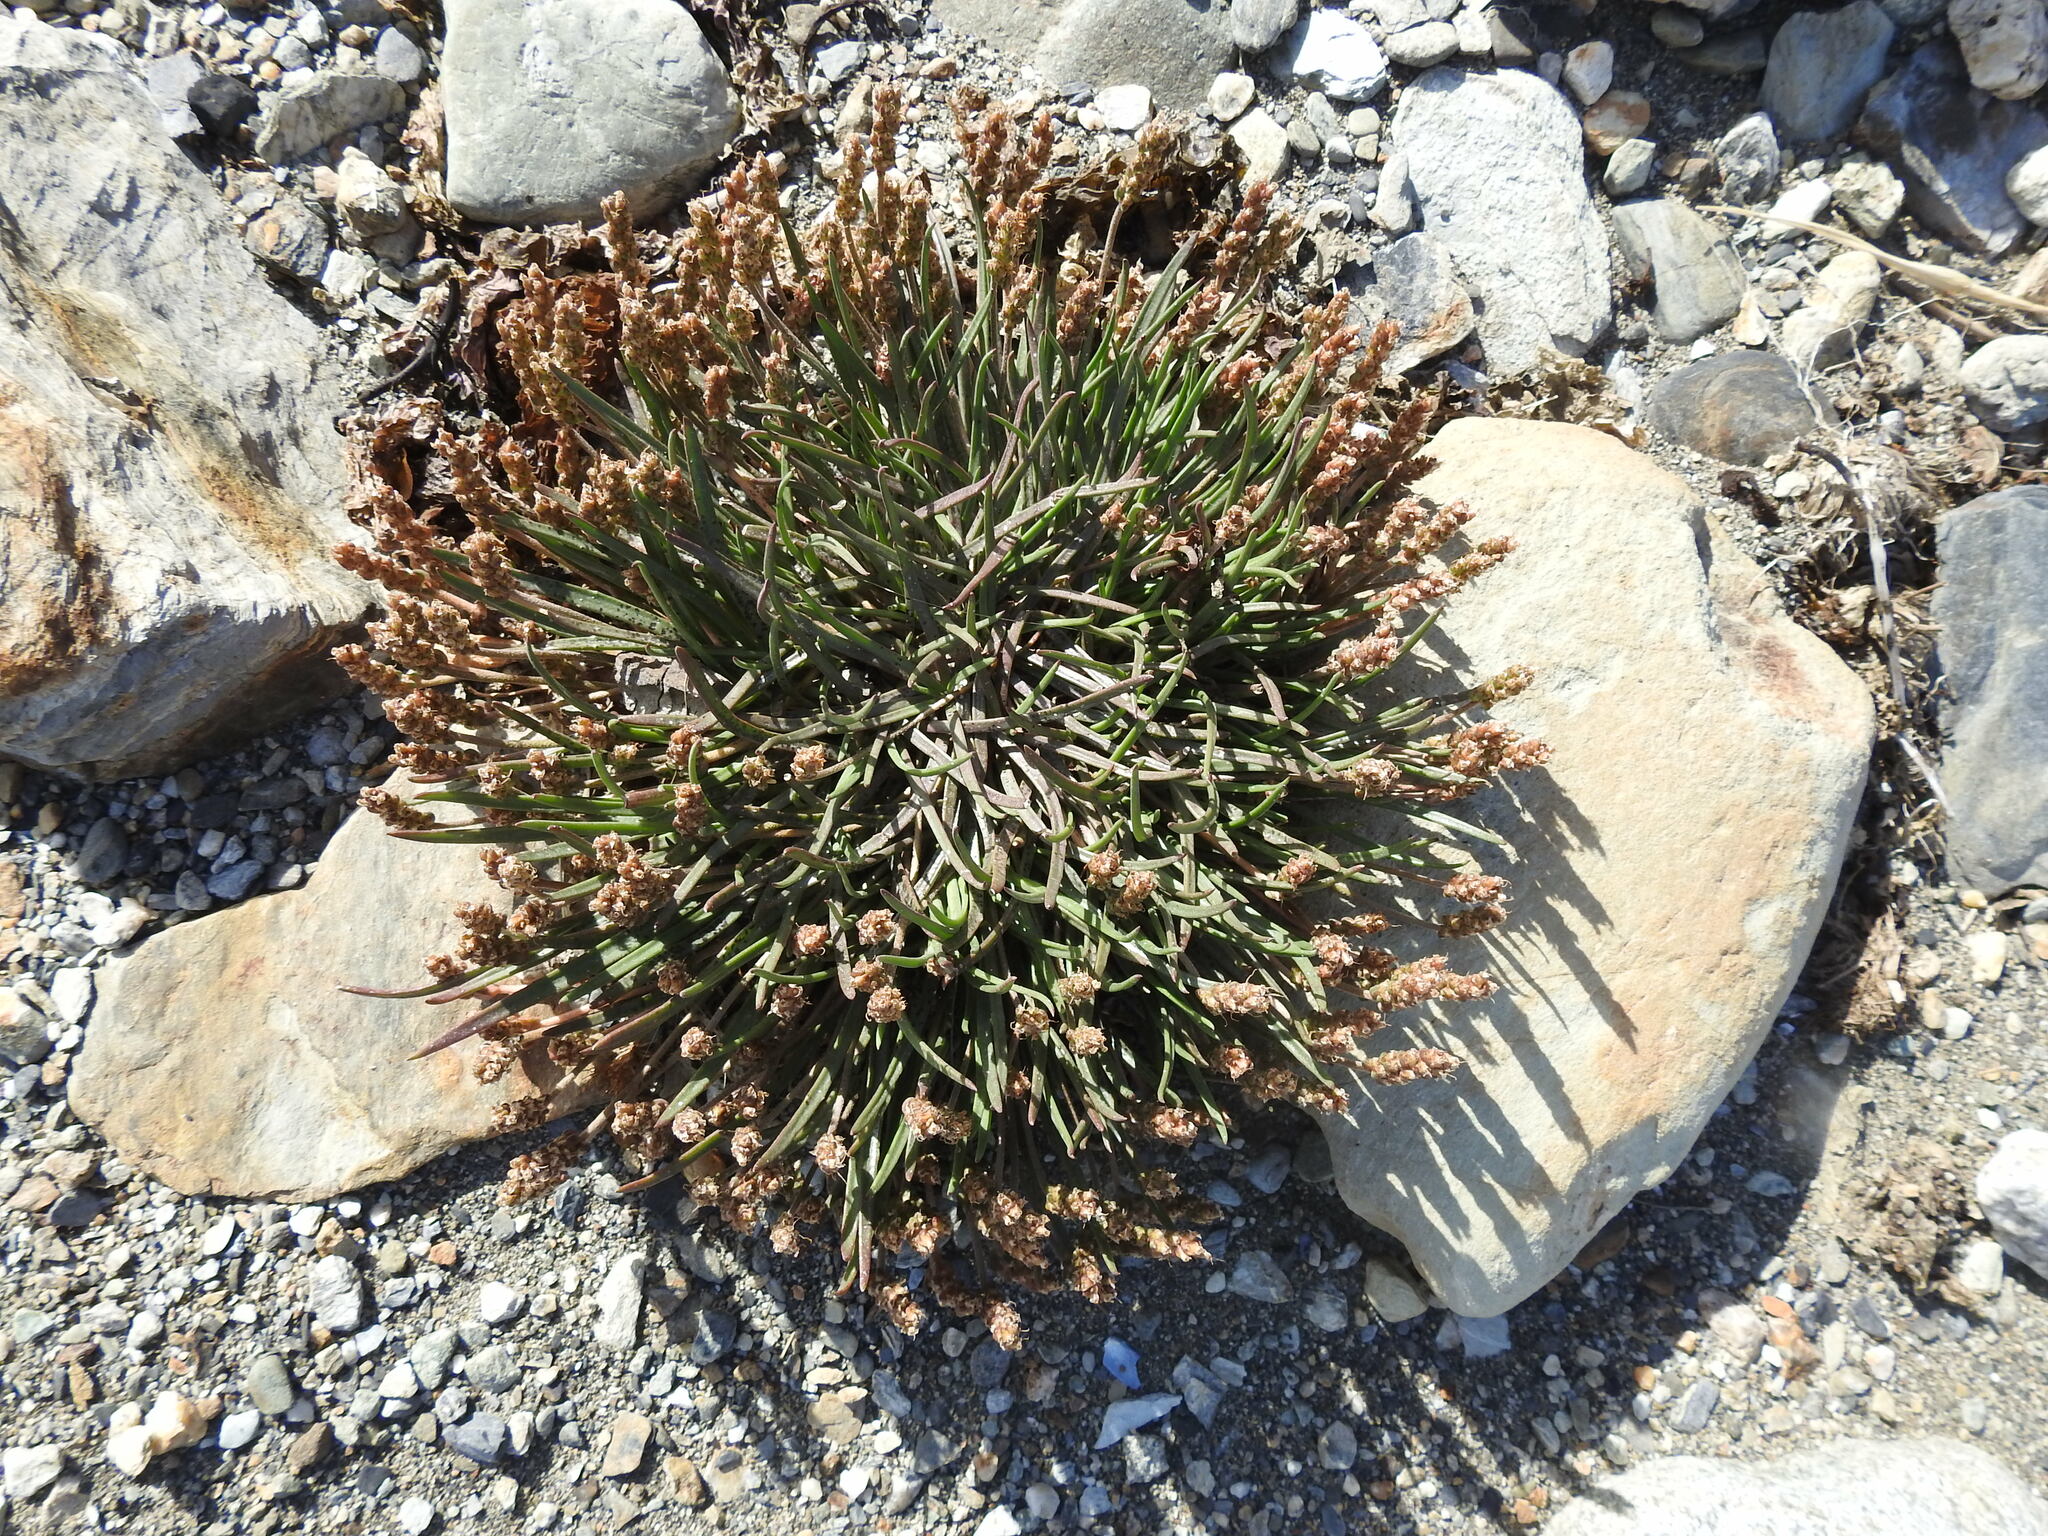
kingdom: Plantae
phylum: Tracheophyta
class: Magnoliopsida
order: Lamiales
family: Plantaginaceae
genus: Plantago
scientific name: Plantago maritima
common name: Sea plantain
